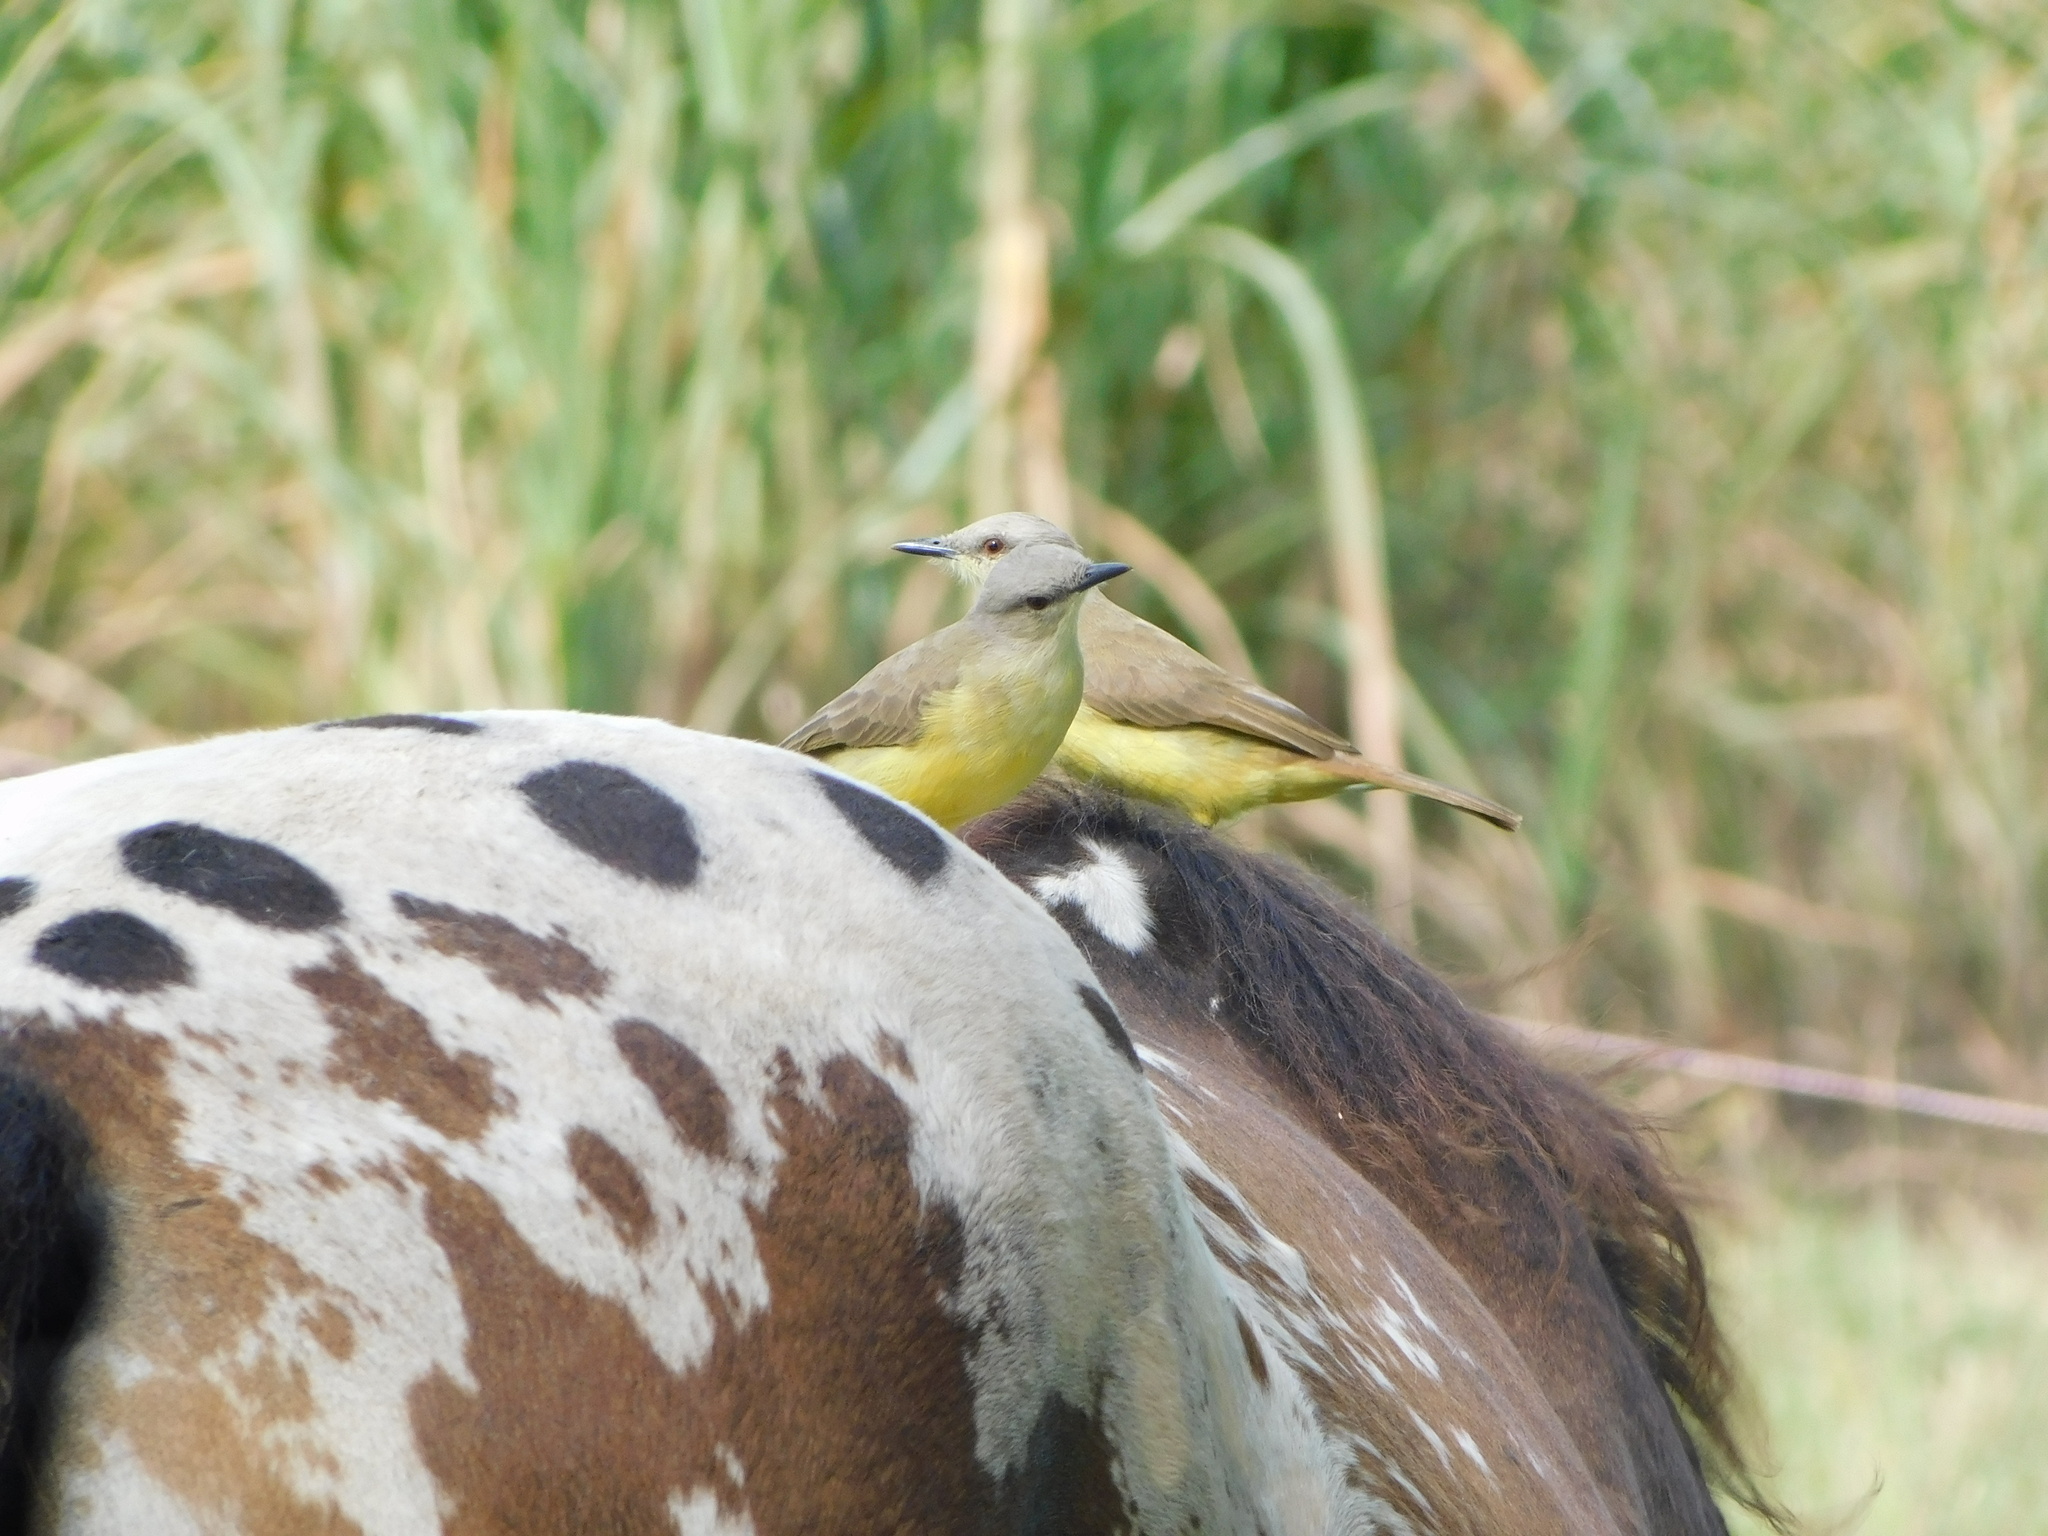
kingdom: Animalia
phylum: Chordata
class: Aves
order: Passeriformes
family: Tyrannidae
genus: Machetornis
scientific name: Machetornis rixosa
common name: Cattle tyrant
